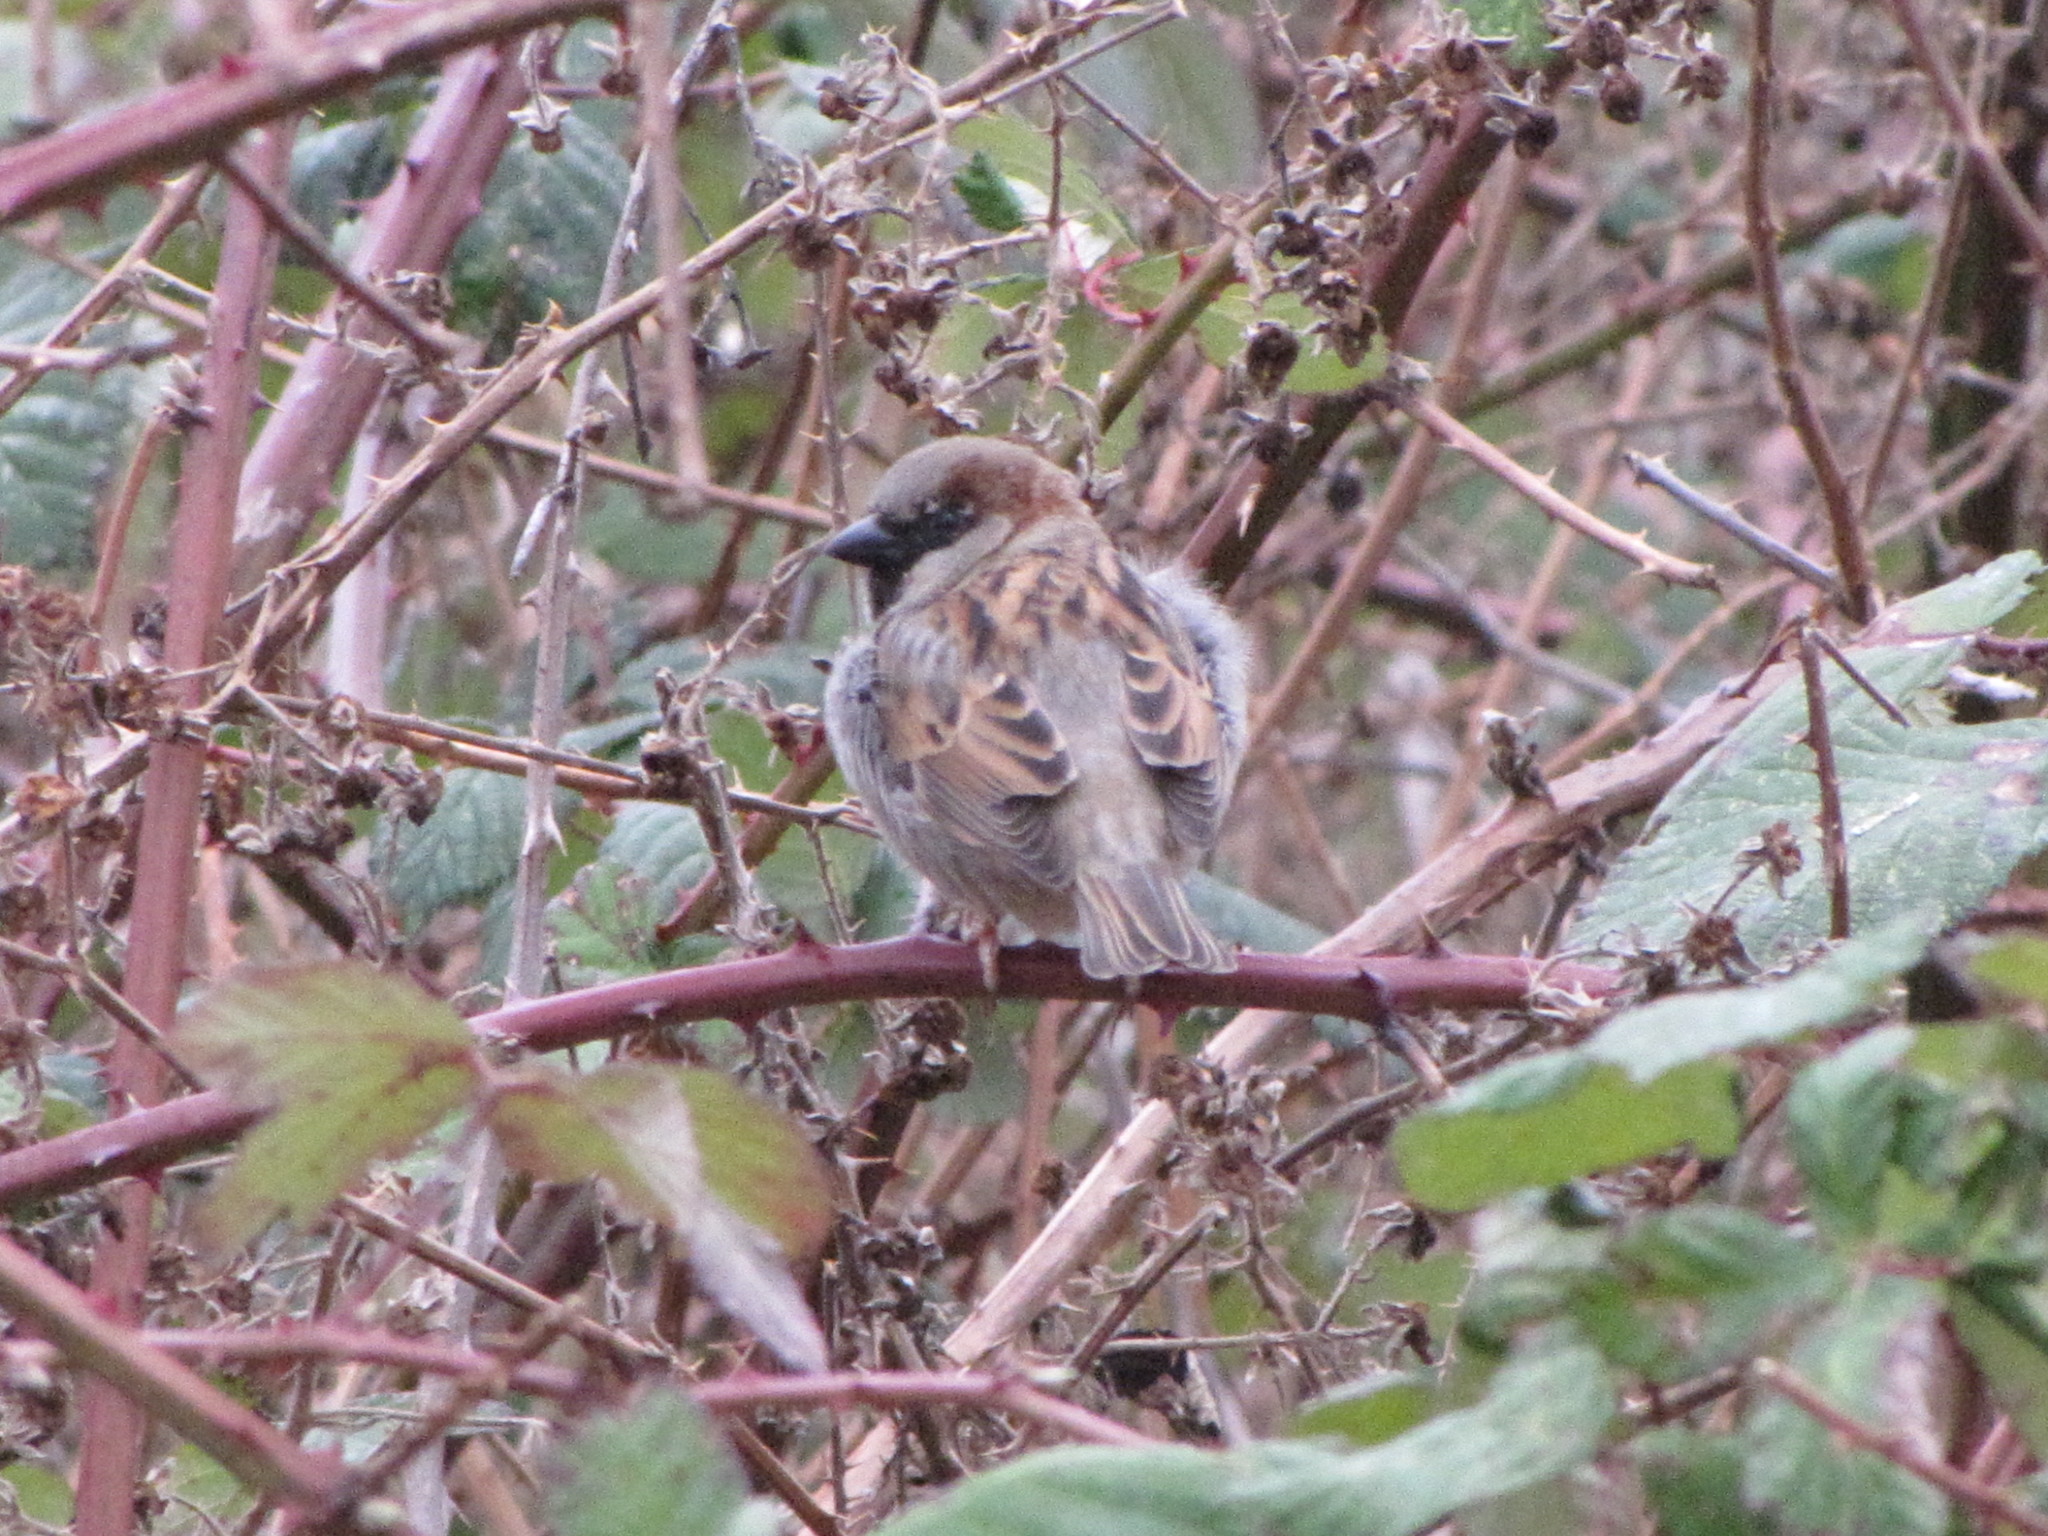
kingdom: Animalia
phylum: Chordata
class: Aves
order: Passeriformes
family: Passeridae
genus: Passer
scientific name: Passer domesticus
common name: House sparrow
